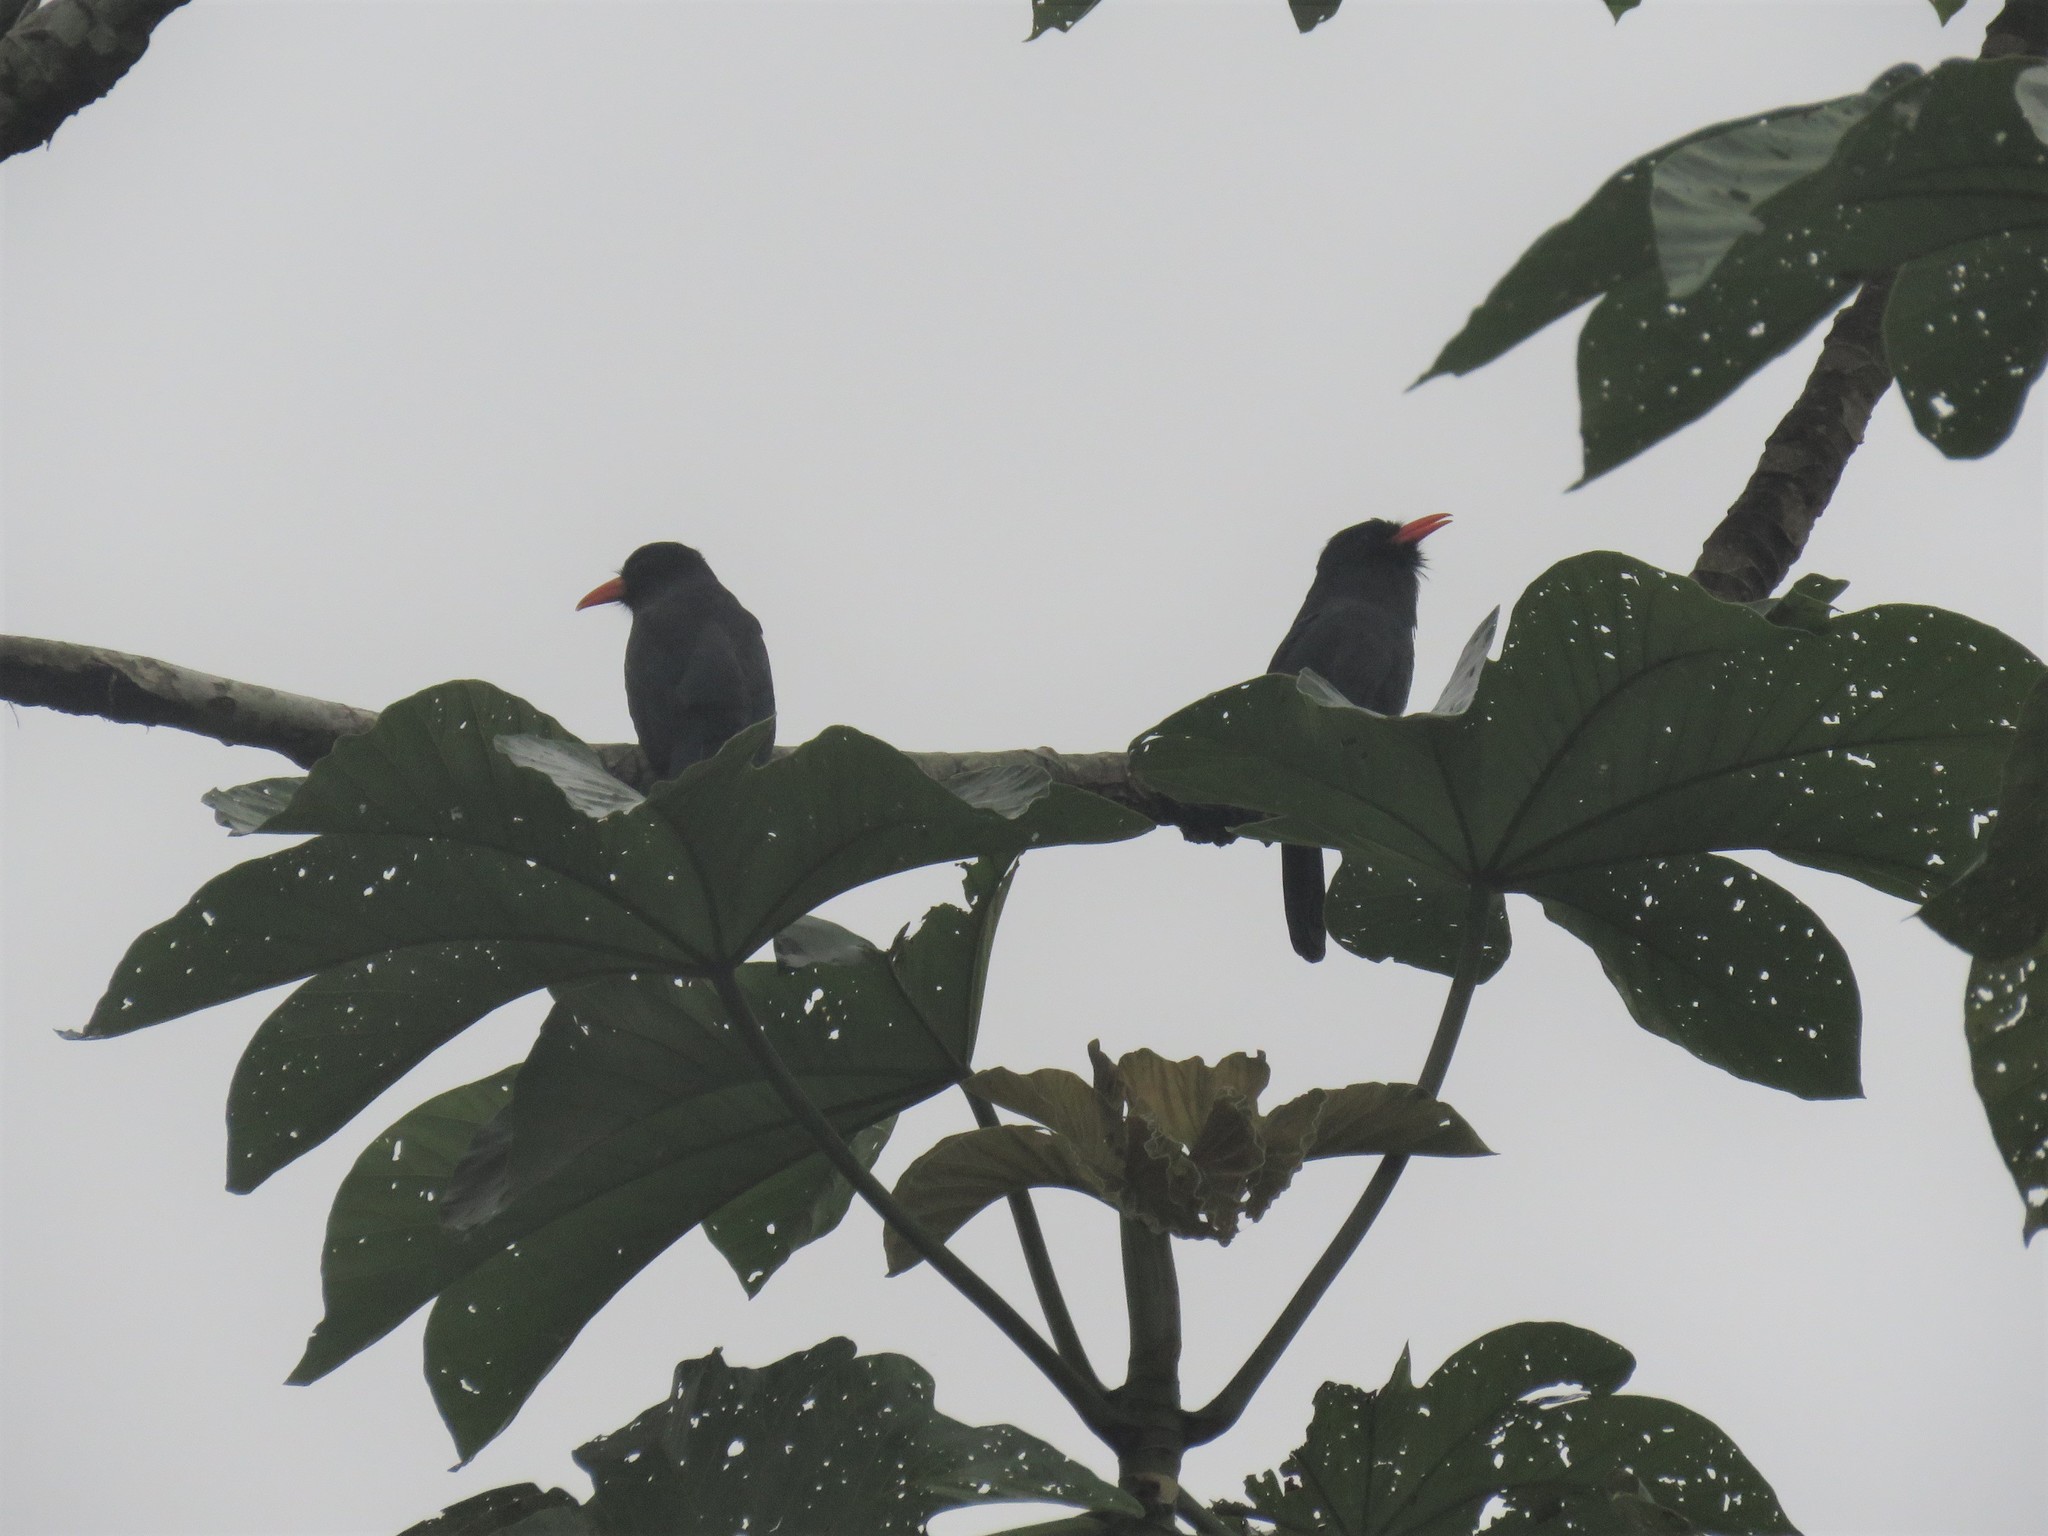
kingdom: Animalia
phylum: Chordata
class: Aves
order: Piciformes
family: Bucconidae
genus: Monasa
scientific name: Monasa nigrifrons
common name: Black-fronted nunbird
